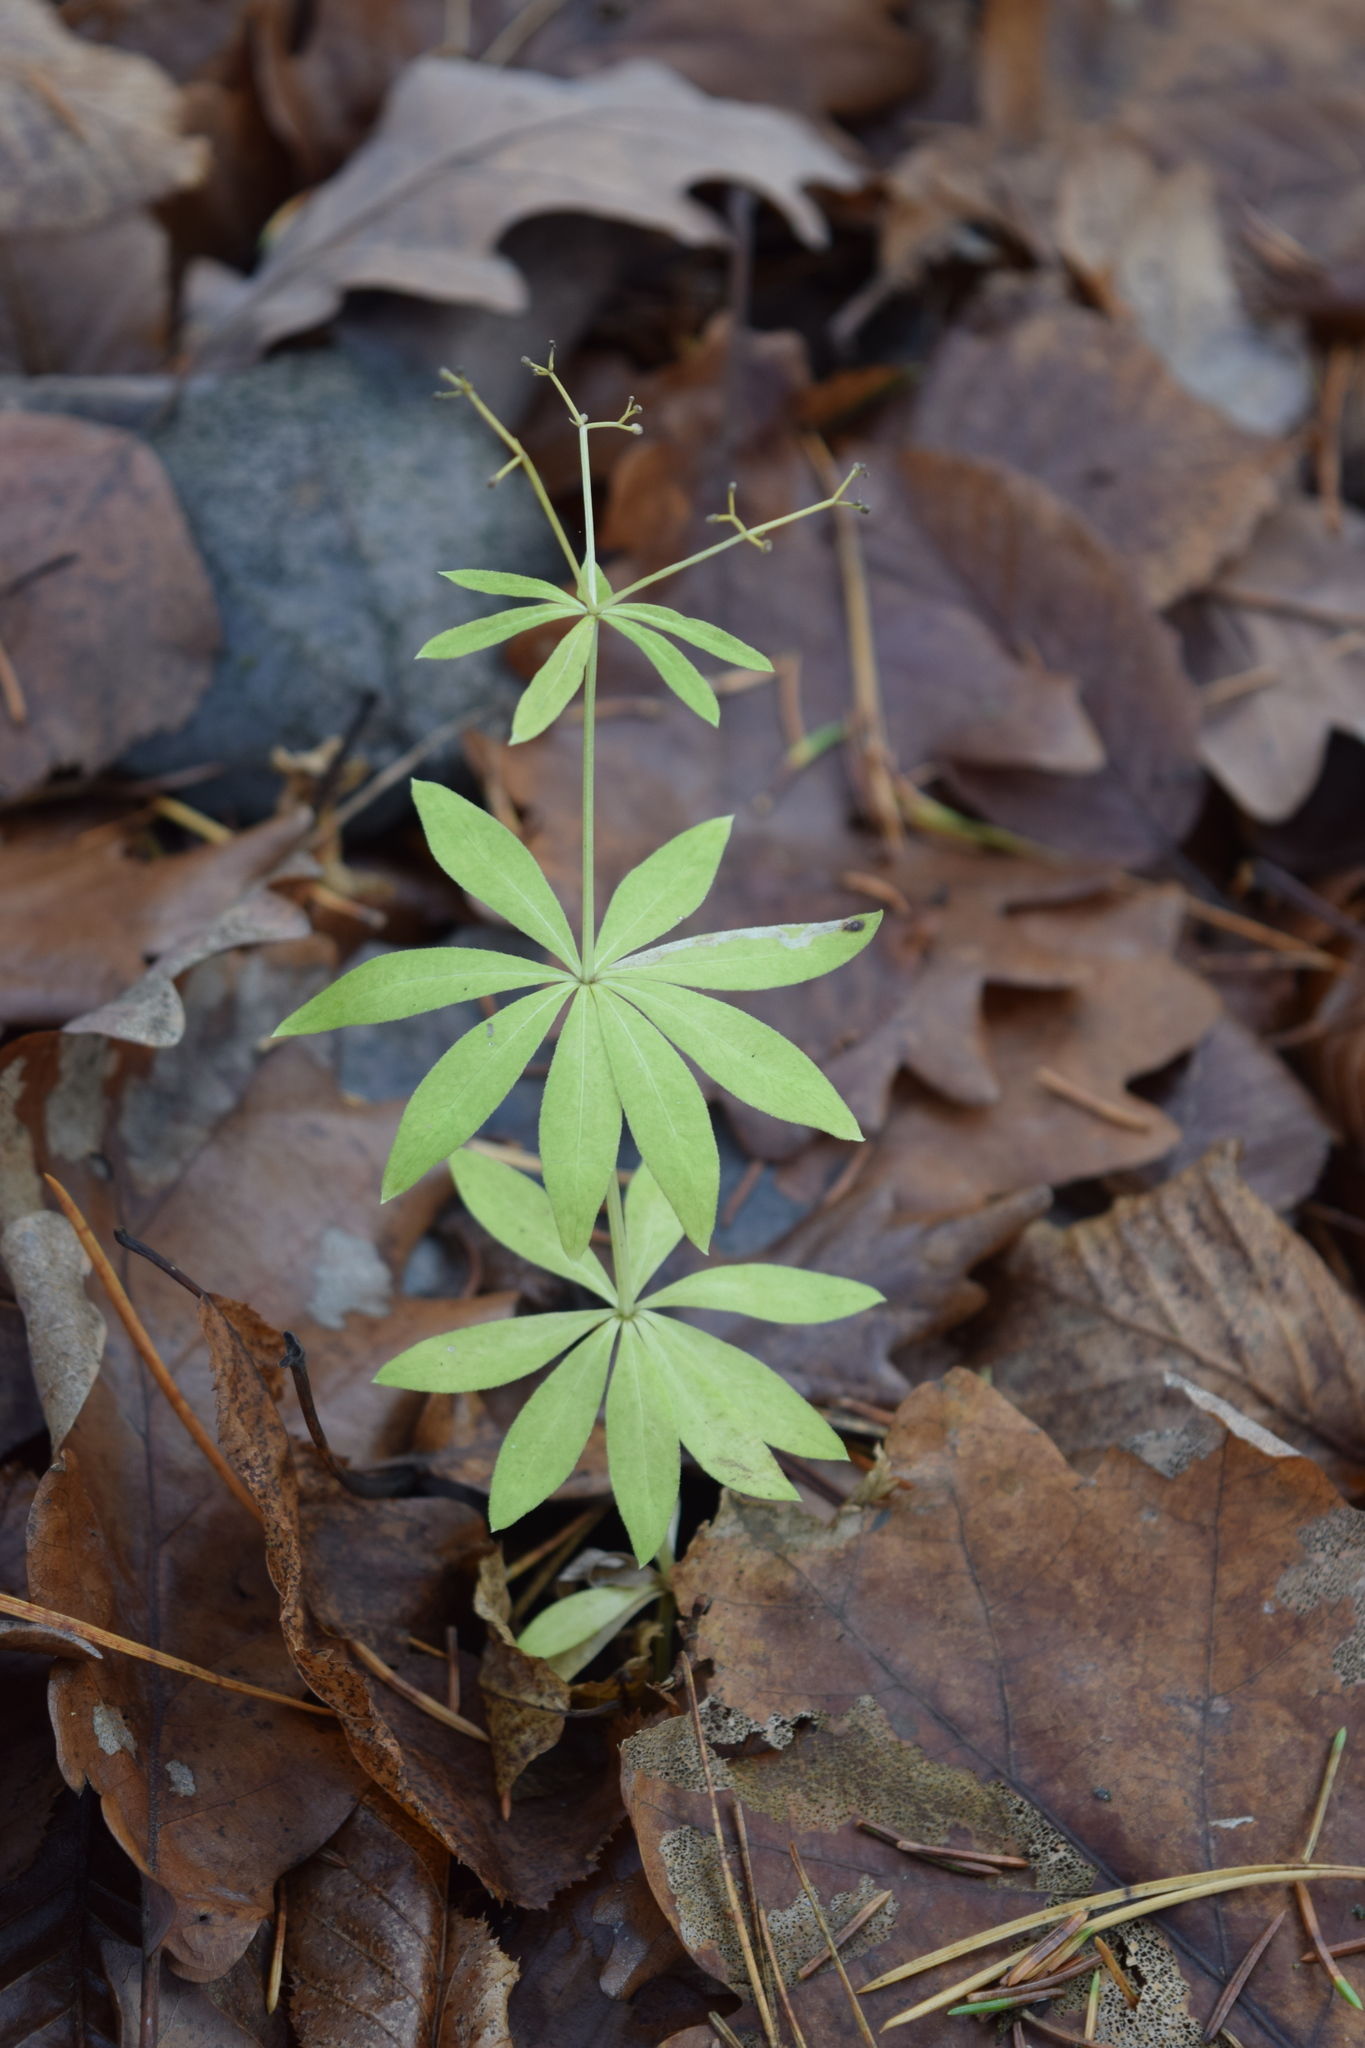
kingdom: Plantae
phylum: Tracheophyta
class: Magnoliopsida
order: Gentianales
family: Rubiaceae
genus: Galium
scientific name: Galium odoratum
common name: Sweet woodruff
